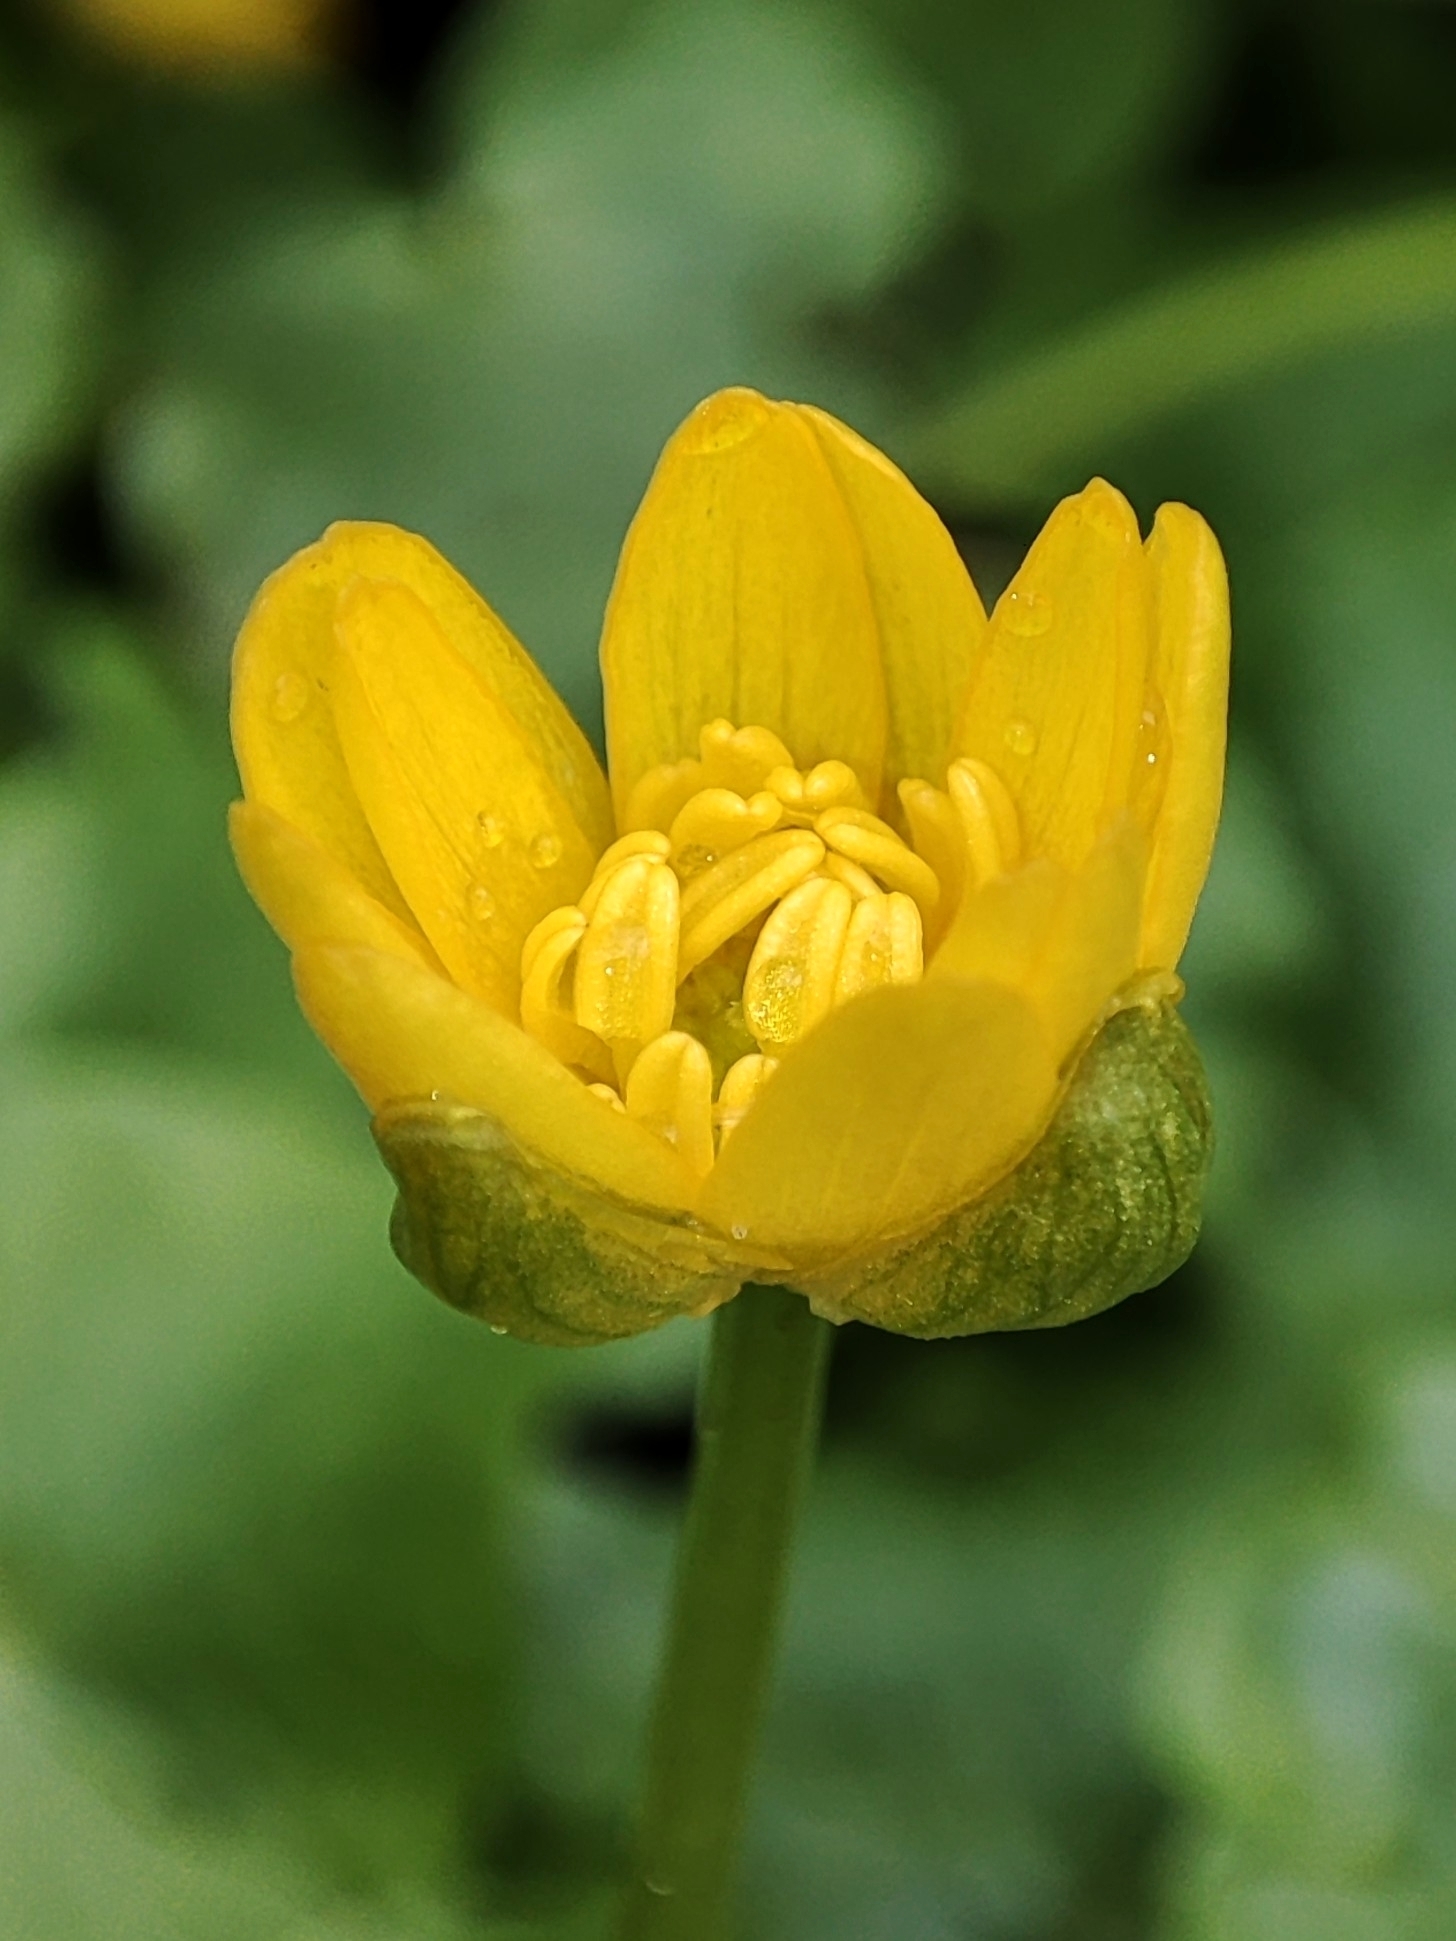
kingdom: Plantae
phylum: Tracheophyta
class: Magnoliopsida
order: Ranunculales
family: Ranunculaceae
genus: Ficaria
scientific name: Ficaria verna
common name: Lesser celandine
